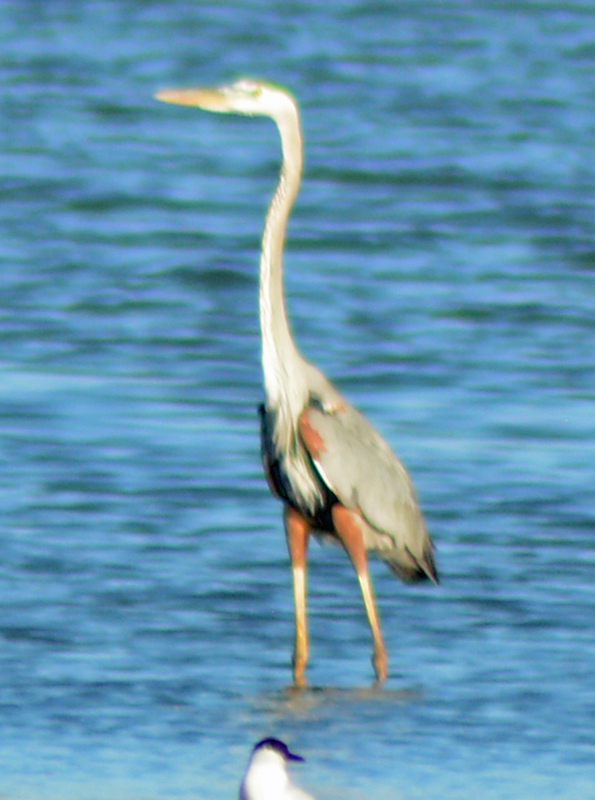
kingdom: Animalia
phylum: Chordata
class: Aves
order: Pelecaniformes
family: Ardeidae
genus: Ardea
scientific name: Ardea herodias
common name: Great blue heron
